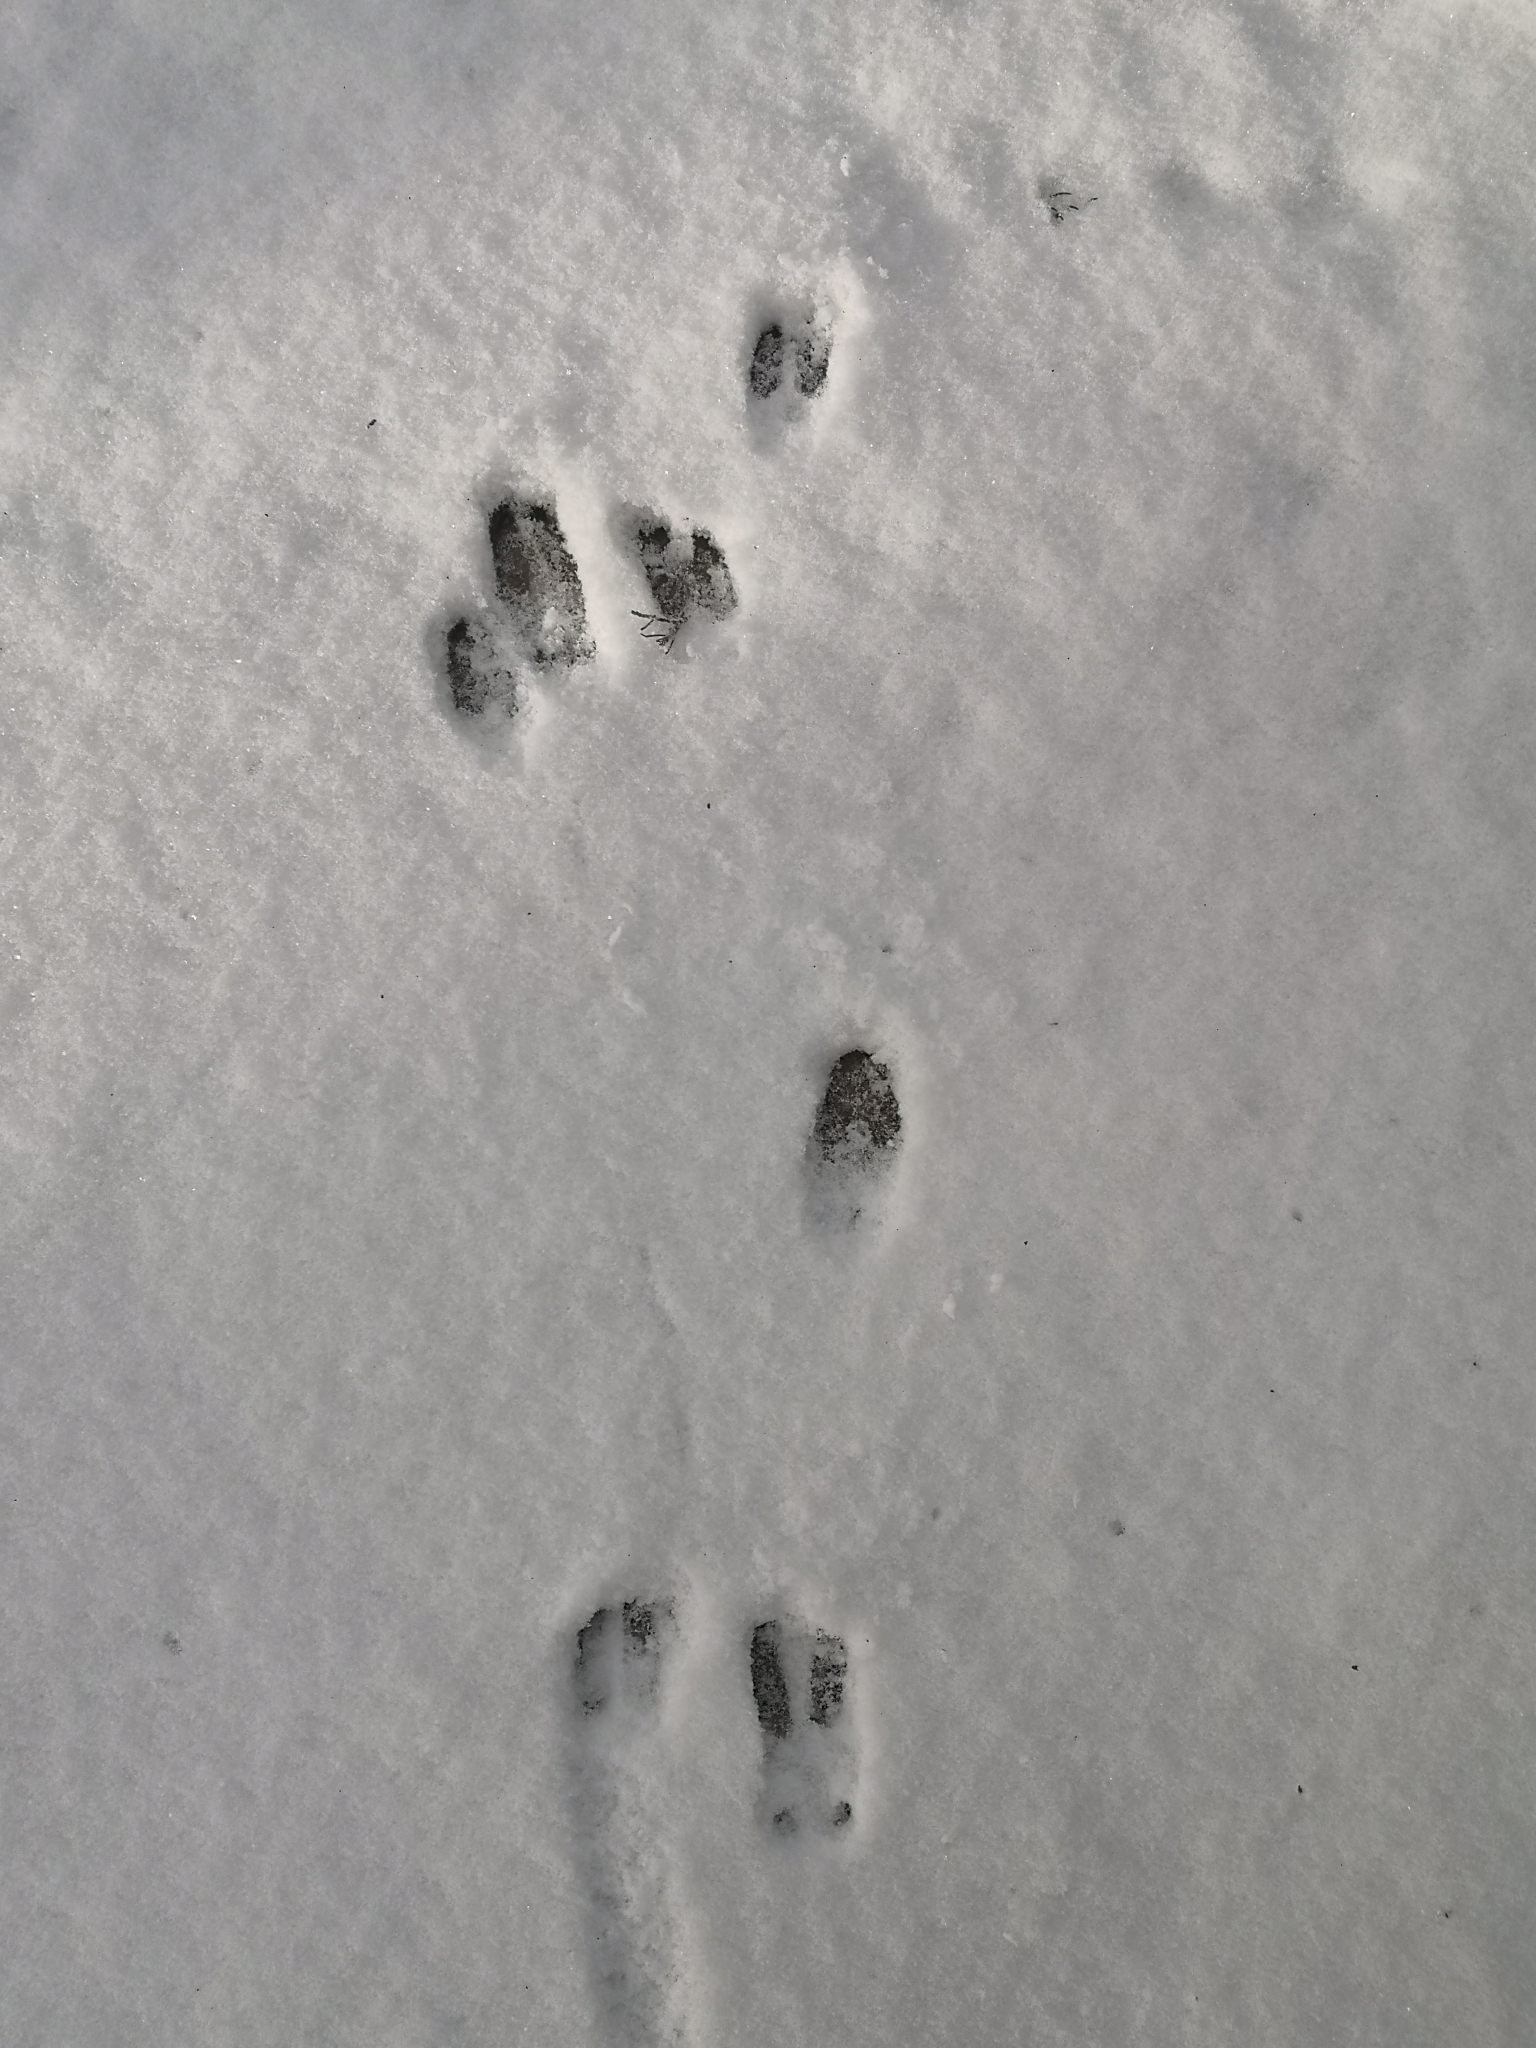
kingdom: Animalia
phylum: Chordata
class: Mammalia
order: Artiodactyla
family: Cervidae
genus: Capreolus
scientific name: Capreolus capreolus
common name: Western roe deer
